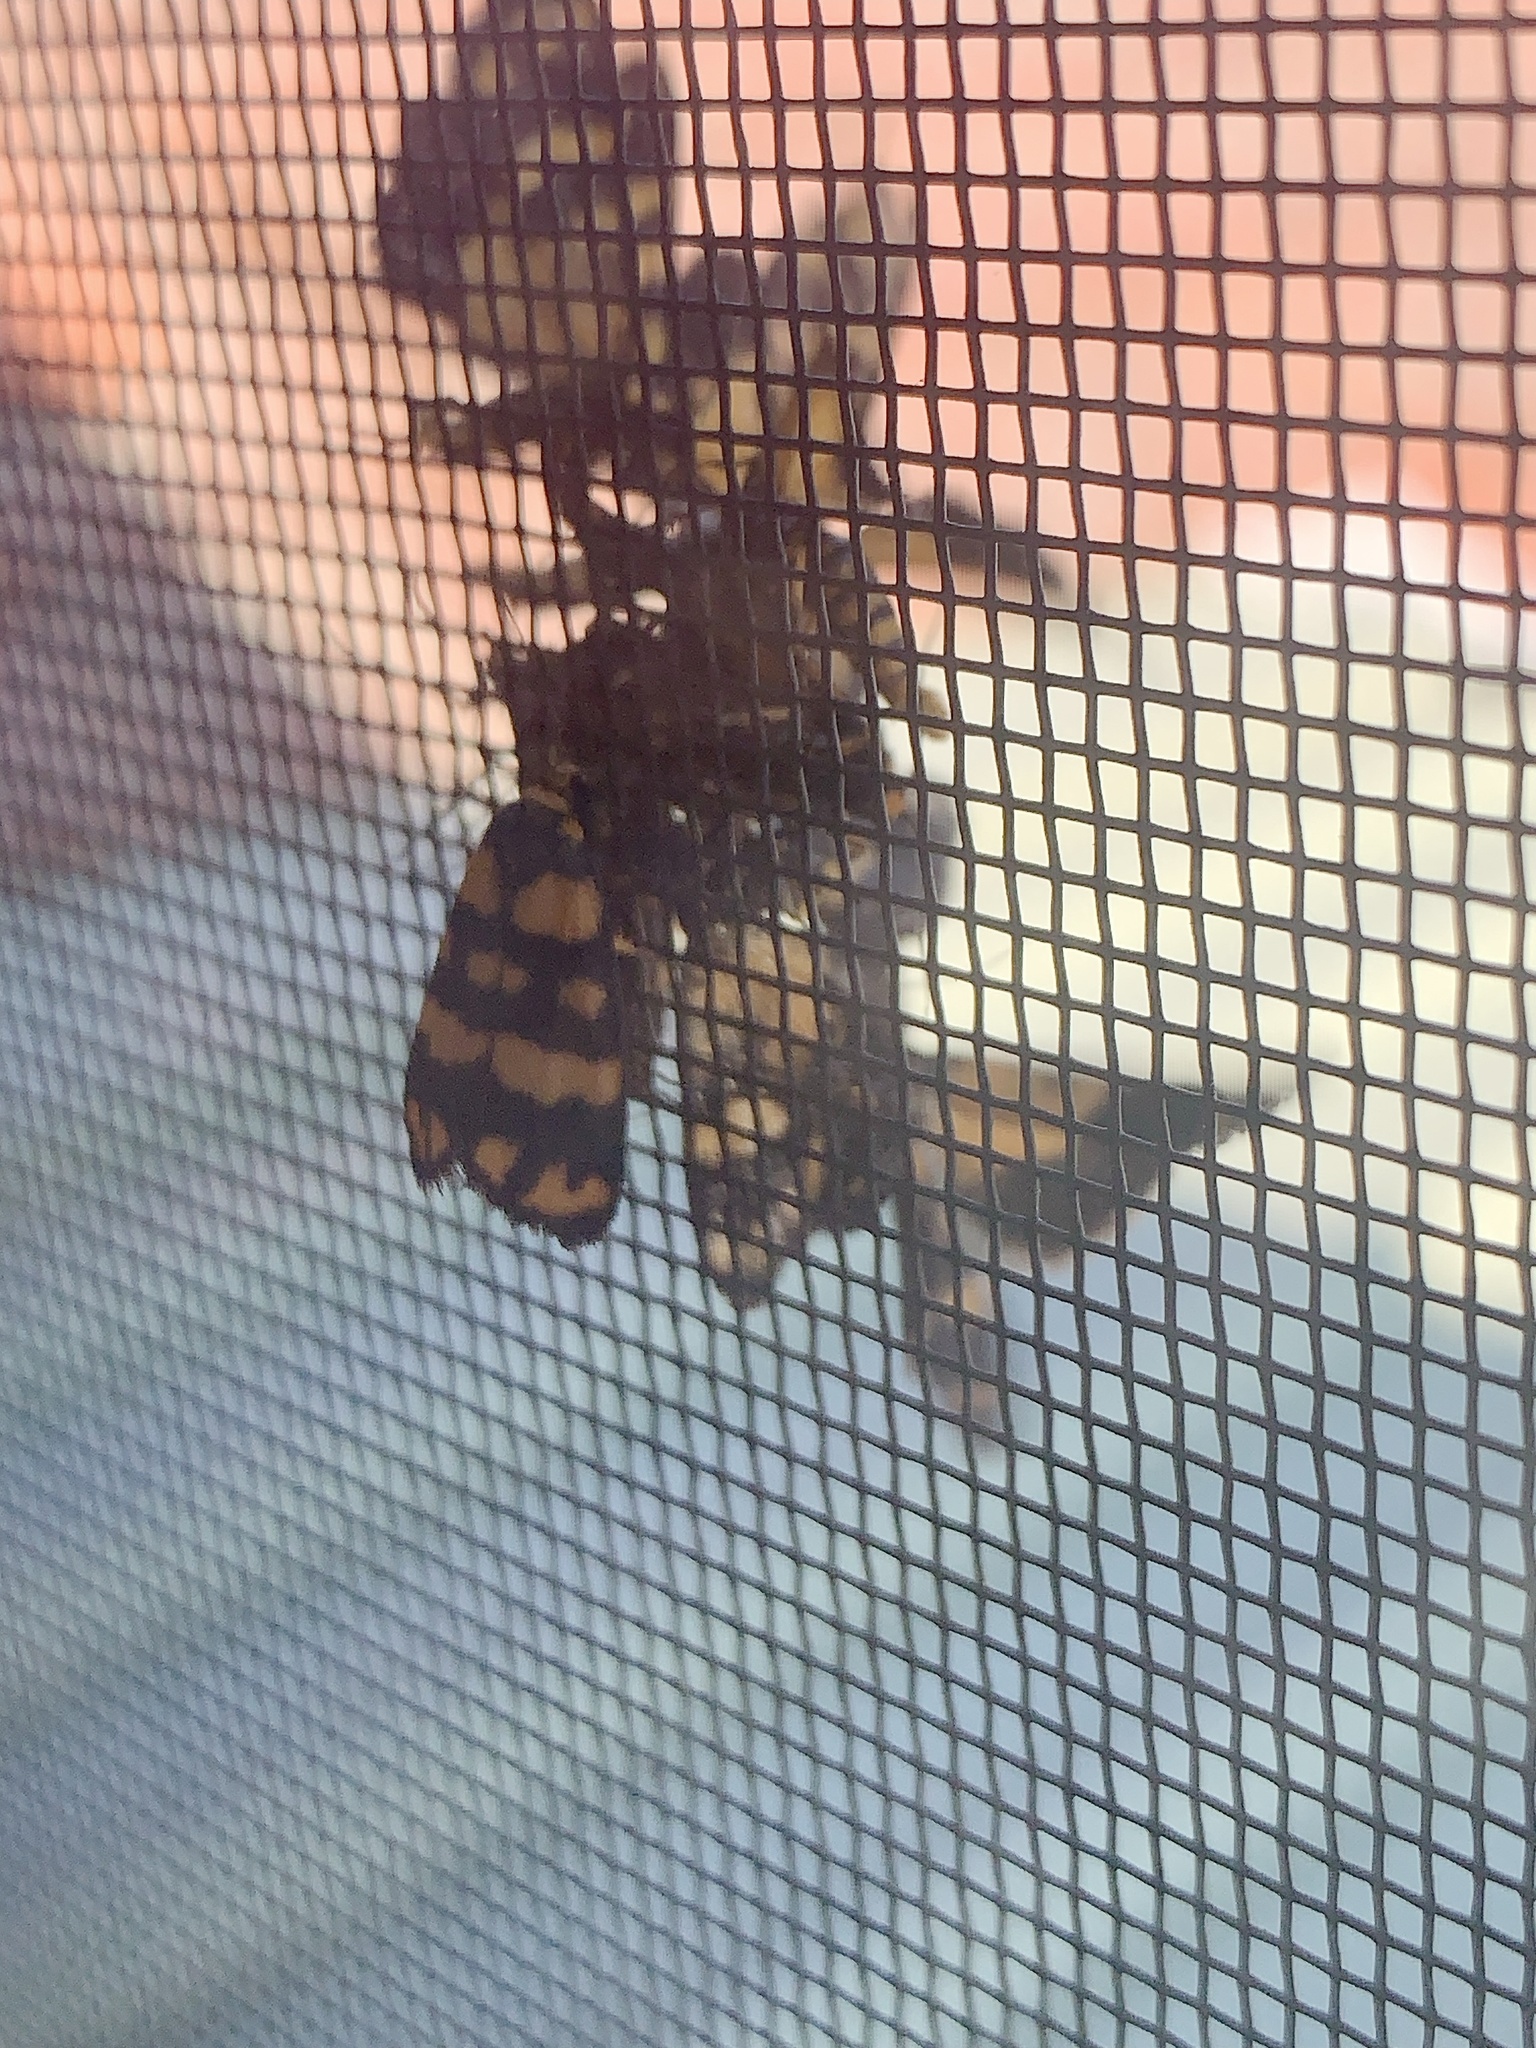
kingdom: Animalia
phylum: Arthropoda
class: Insecta
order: Lepidoptera
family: Erebidae
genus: Asura
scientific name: Asura lydia
